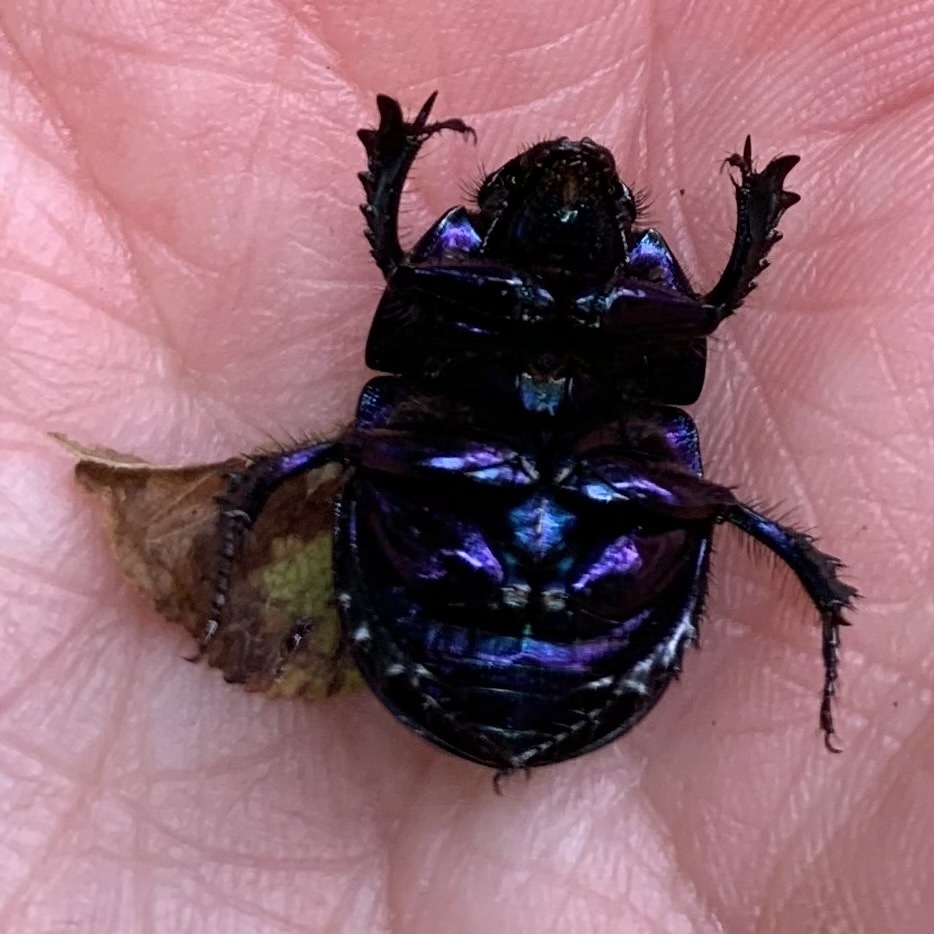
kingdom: Animalia
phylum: Arthropoda
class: Insecta
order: Coleoptera
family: Geotrupidae
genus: Anoplotrupes
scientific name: Anoplotrupes stercorosus
